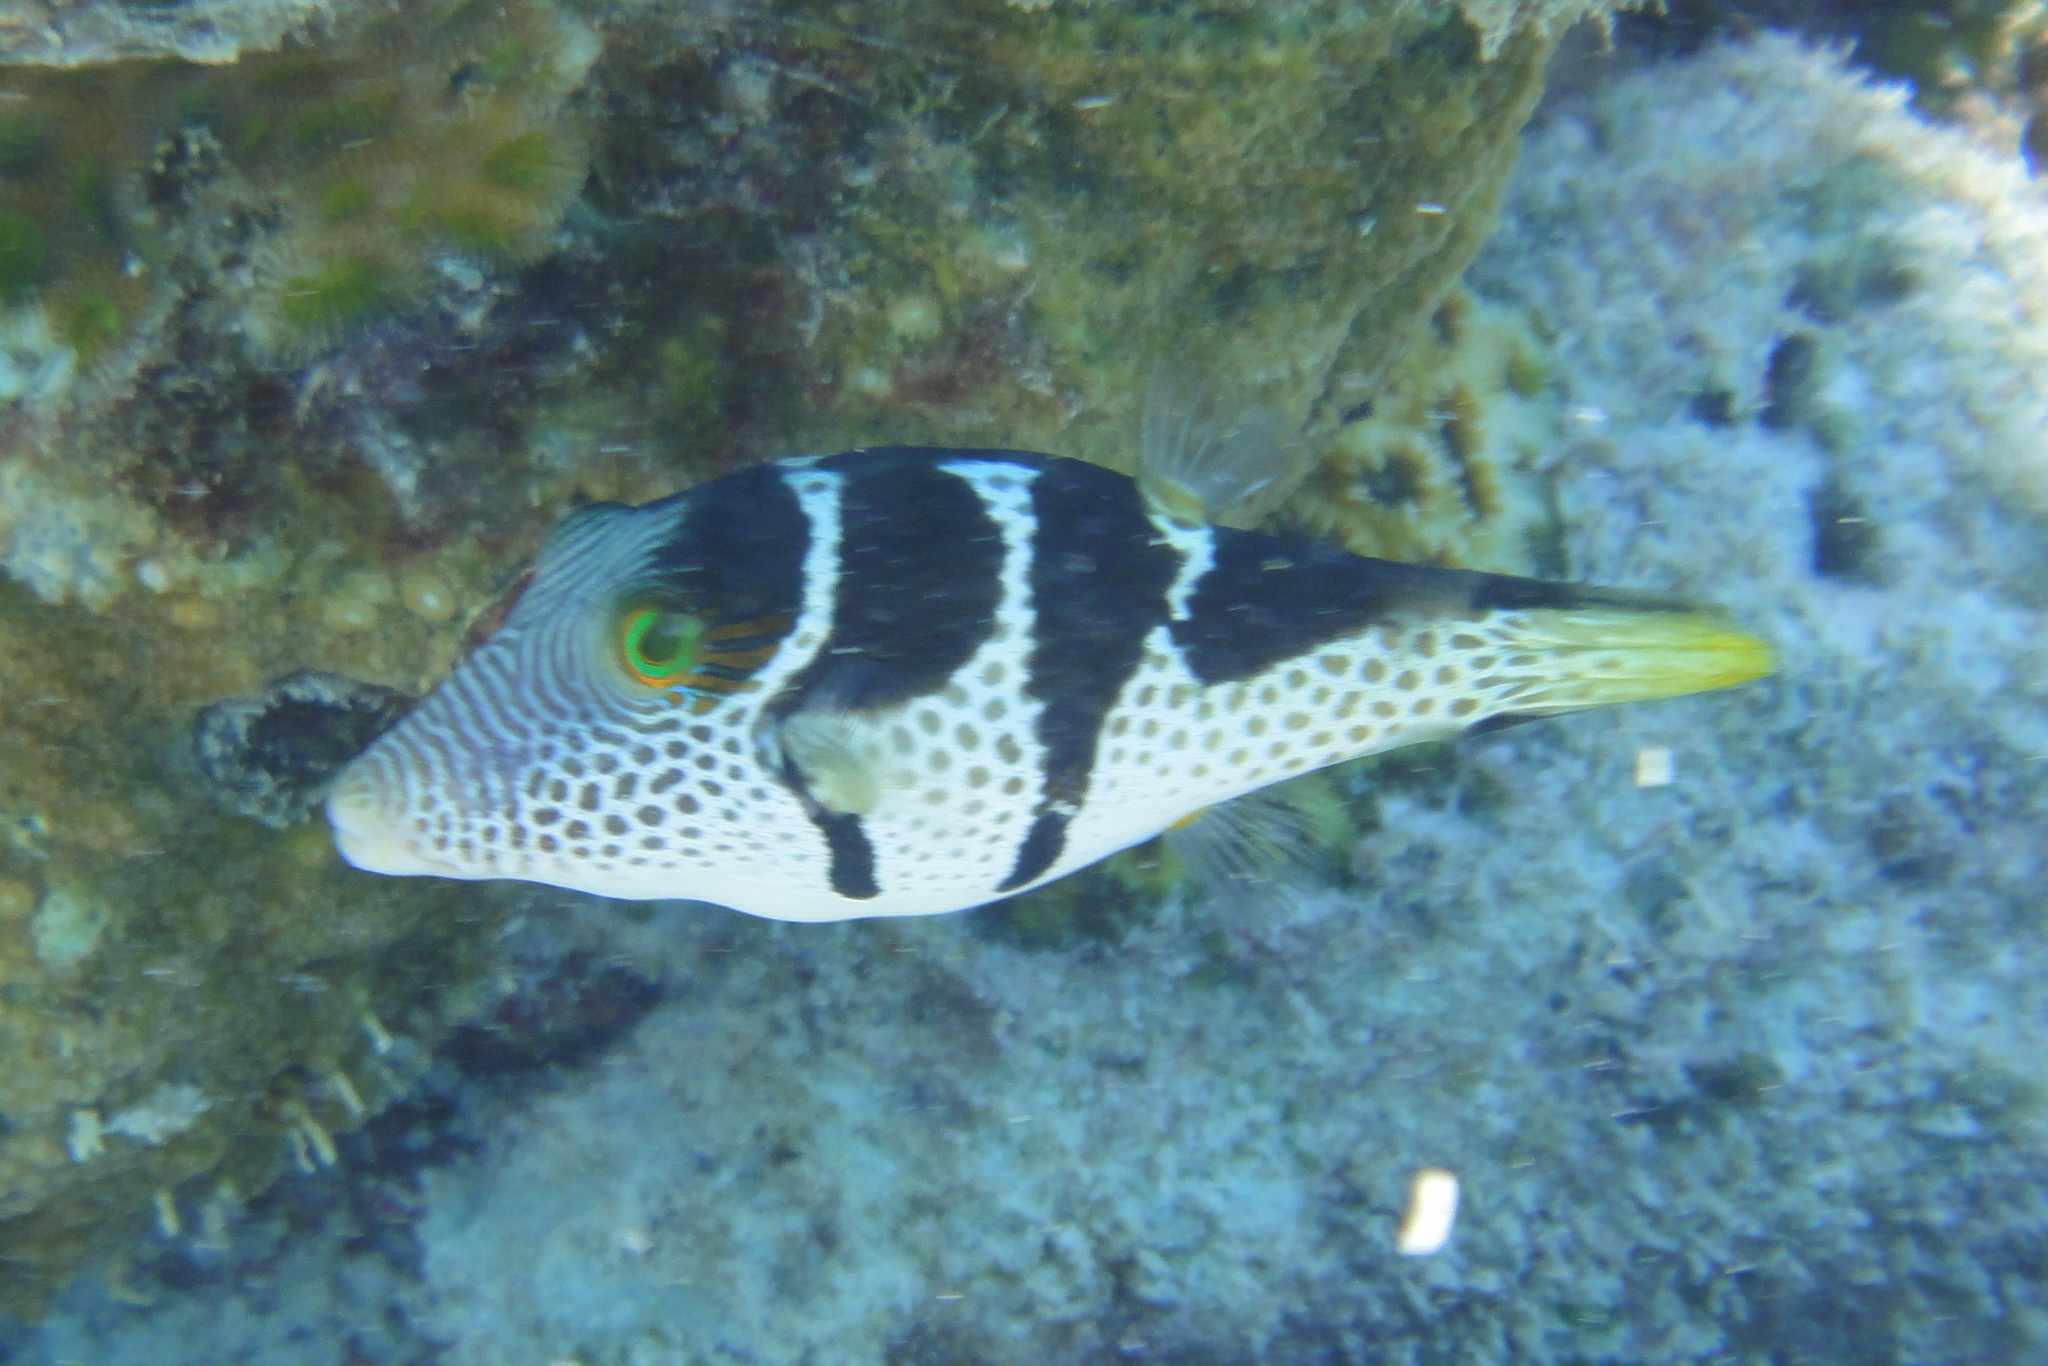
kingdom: Animalia
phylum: Chordata
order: Tetraodontiformes
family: Tetraodontidae
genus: Canthigaster
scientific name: Canthigaster valentini
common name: Banded toby
